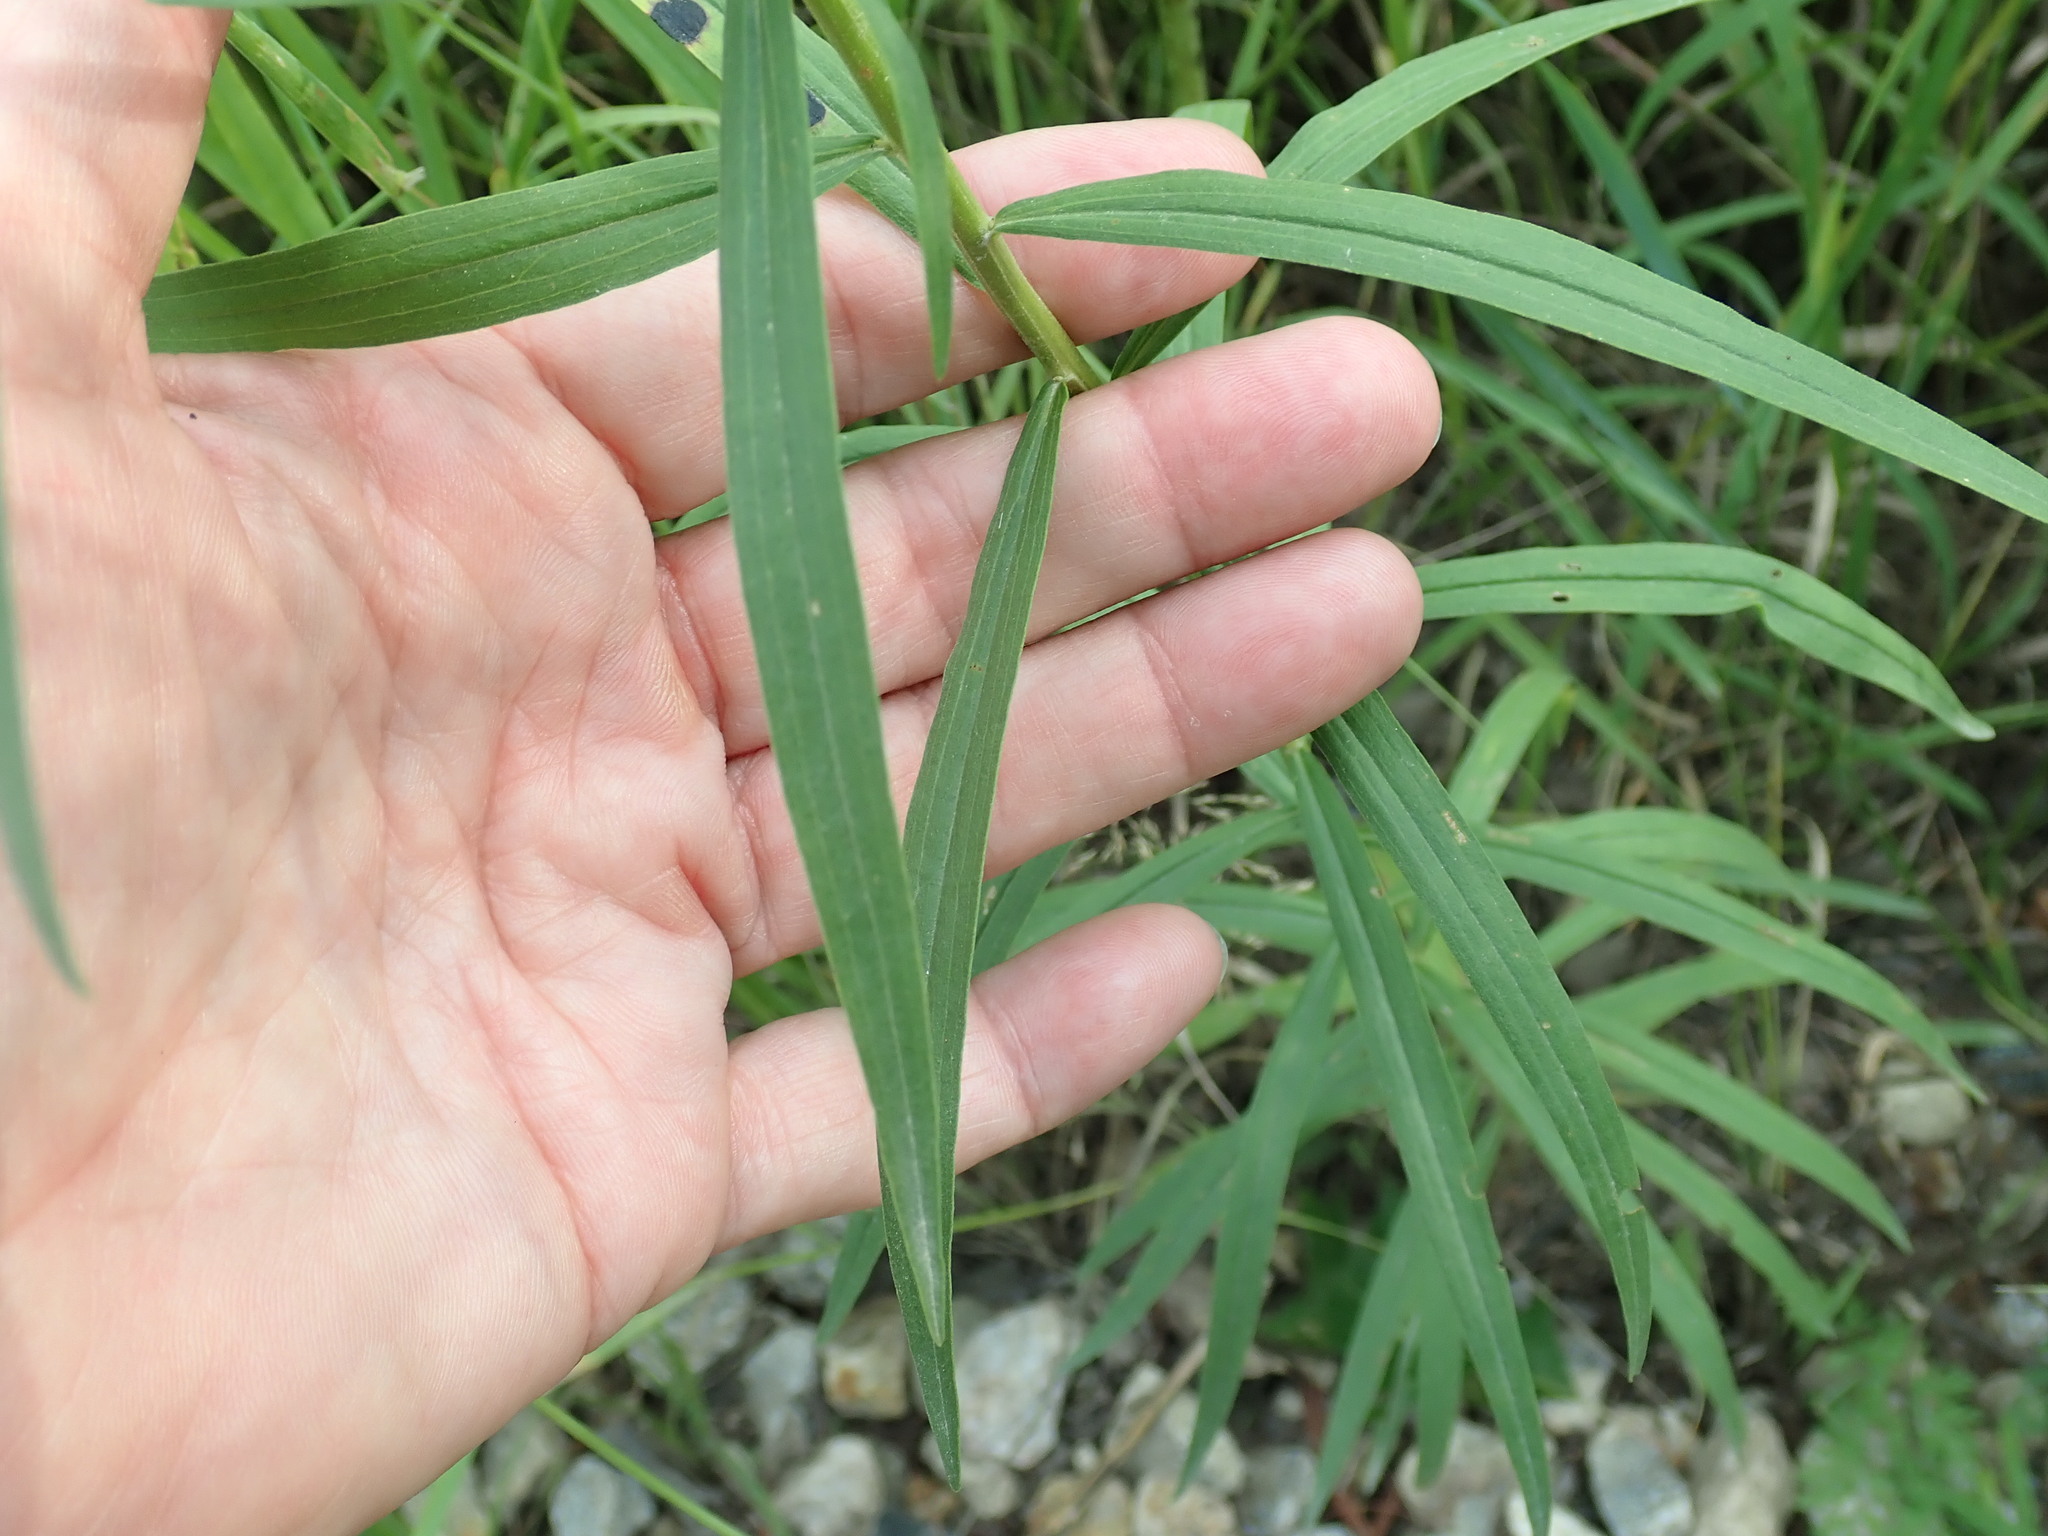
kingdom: Plantae
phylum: Tracheophyta
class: Magnoliopsida
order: Asterales
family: Asteraceae
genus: Euthamia
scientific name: Euthamia graminifolia
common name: Common goldentop
